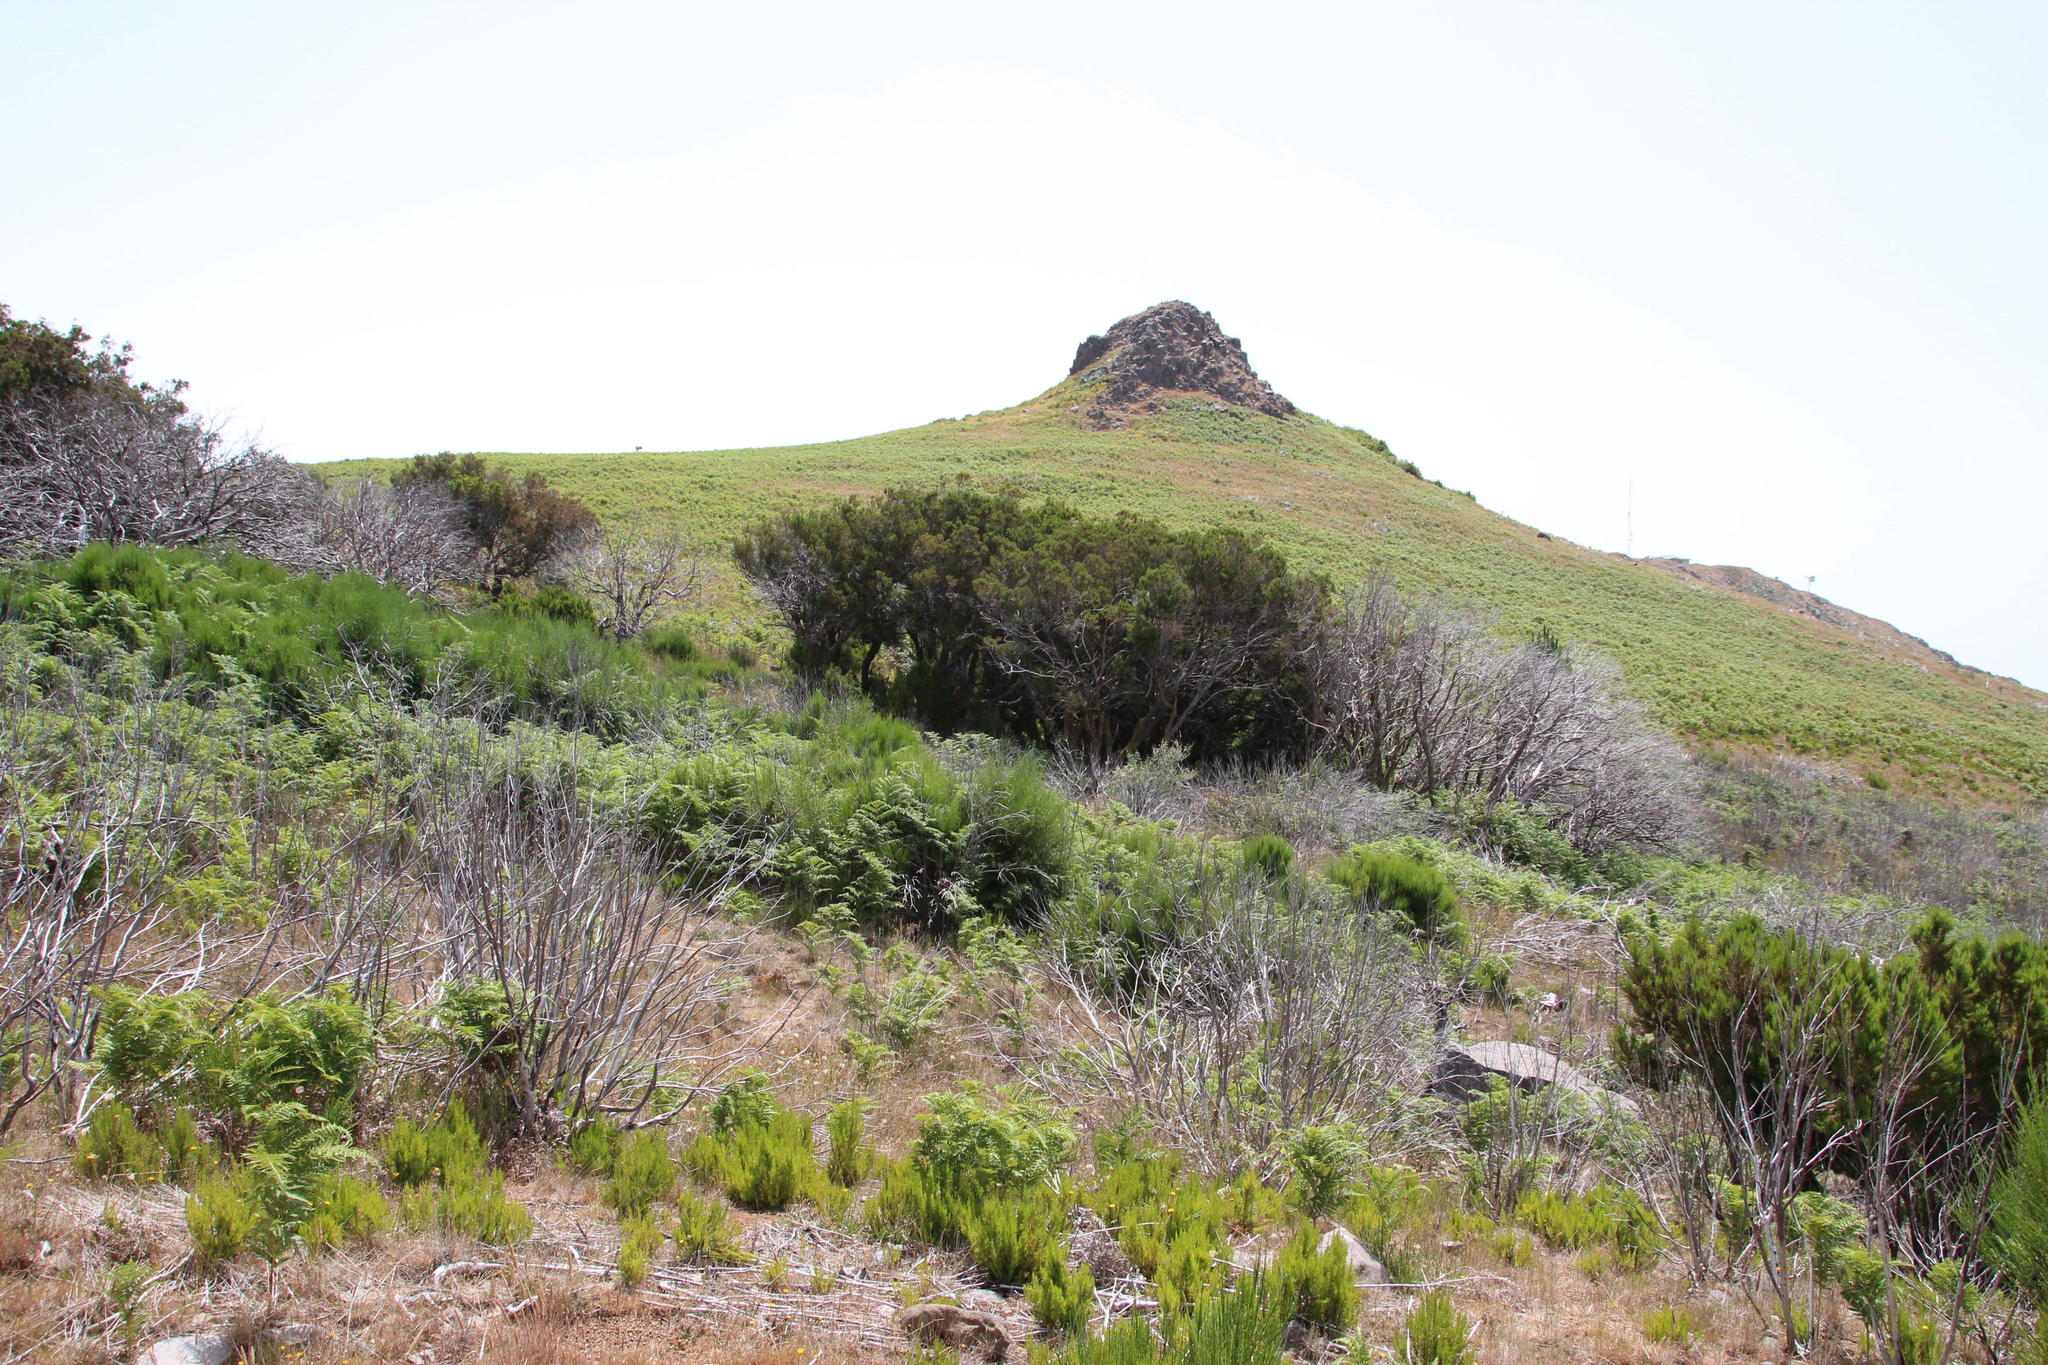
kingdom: Plantae
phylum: Tracheophyta
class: Polypodiopsida
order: Polypodiales
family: Dennstaedtiaceae
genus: Pteridium
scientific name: Pteridium aquilinum
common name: Bracken
